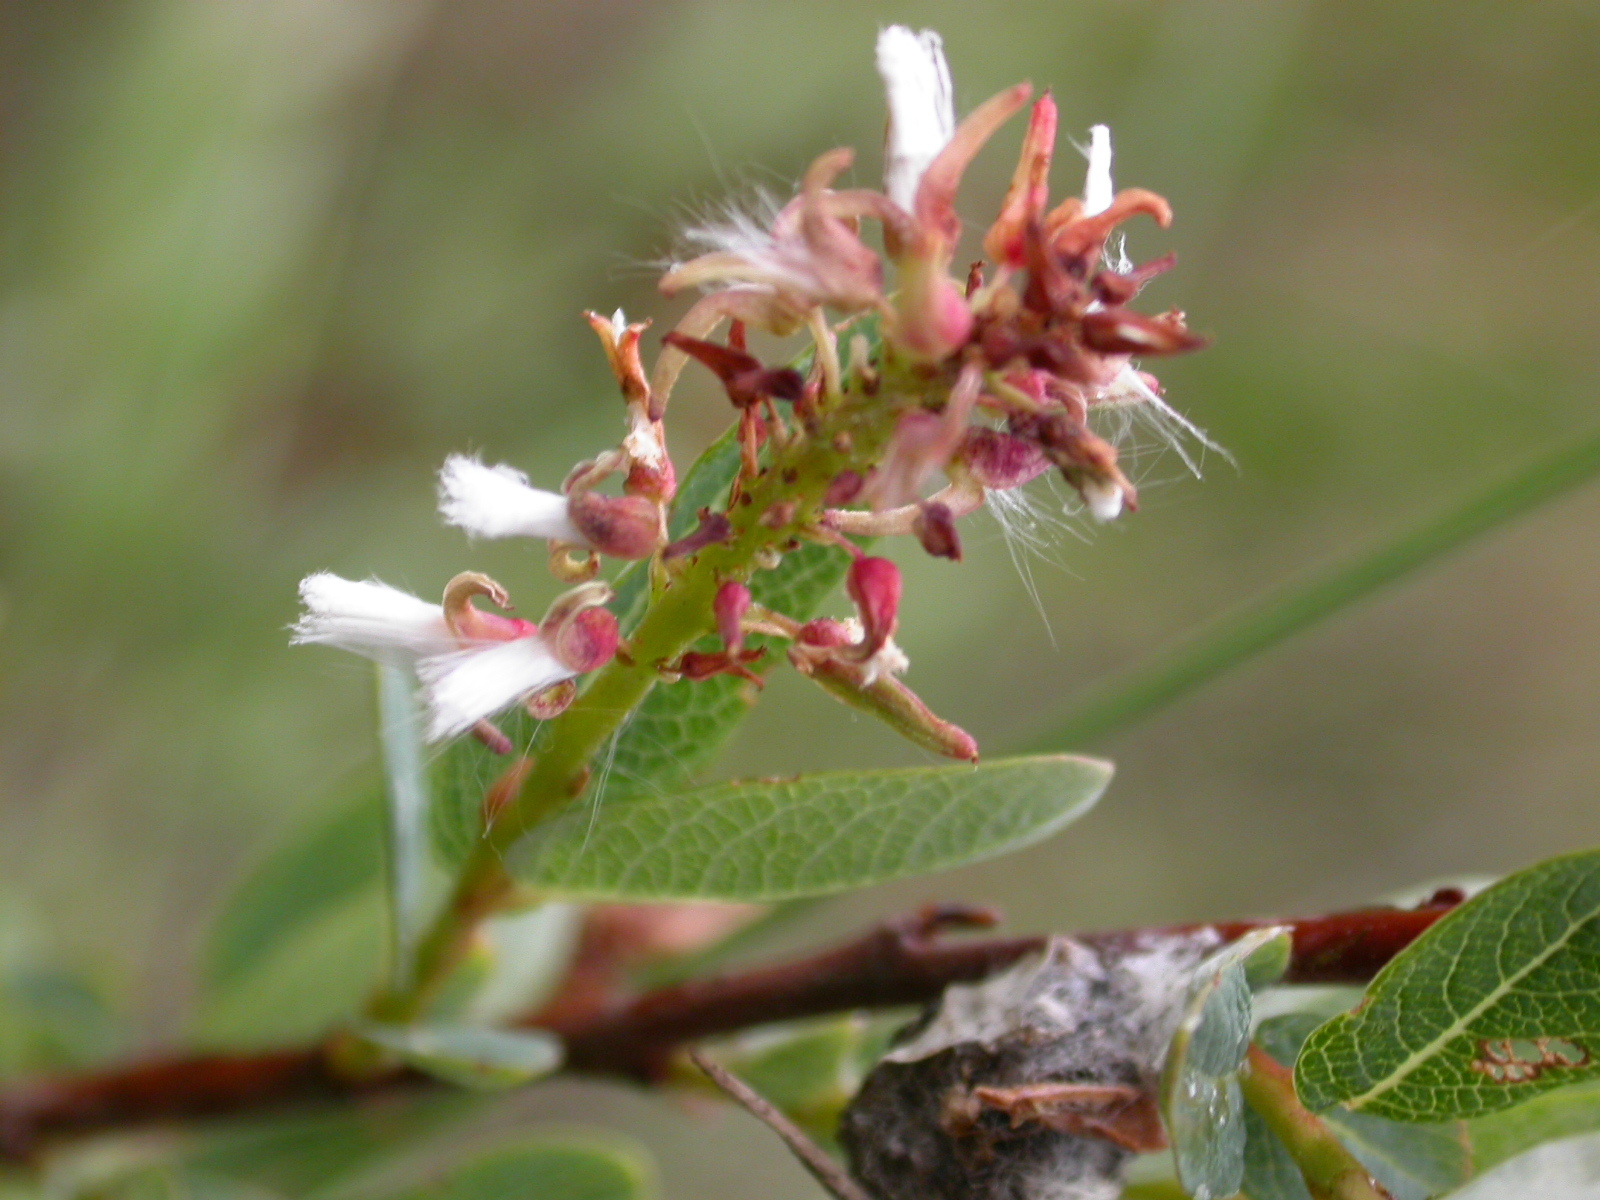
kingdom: Plantae
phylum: Tracheophyta
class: Magnoliopsida
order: Malpighiales
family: Salicaceae
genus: Salix
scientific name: Salix myrtilloides
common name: Myrtle-leaved willow
